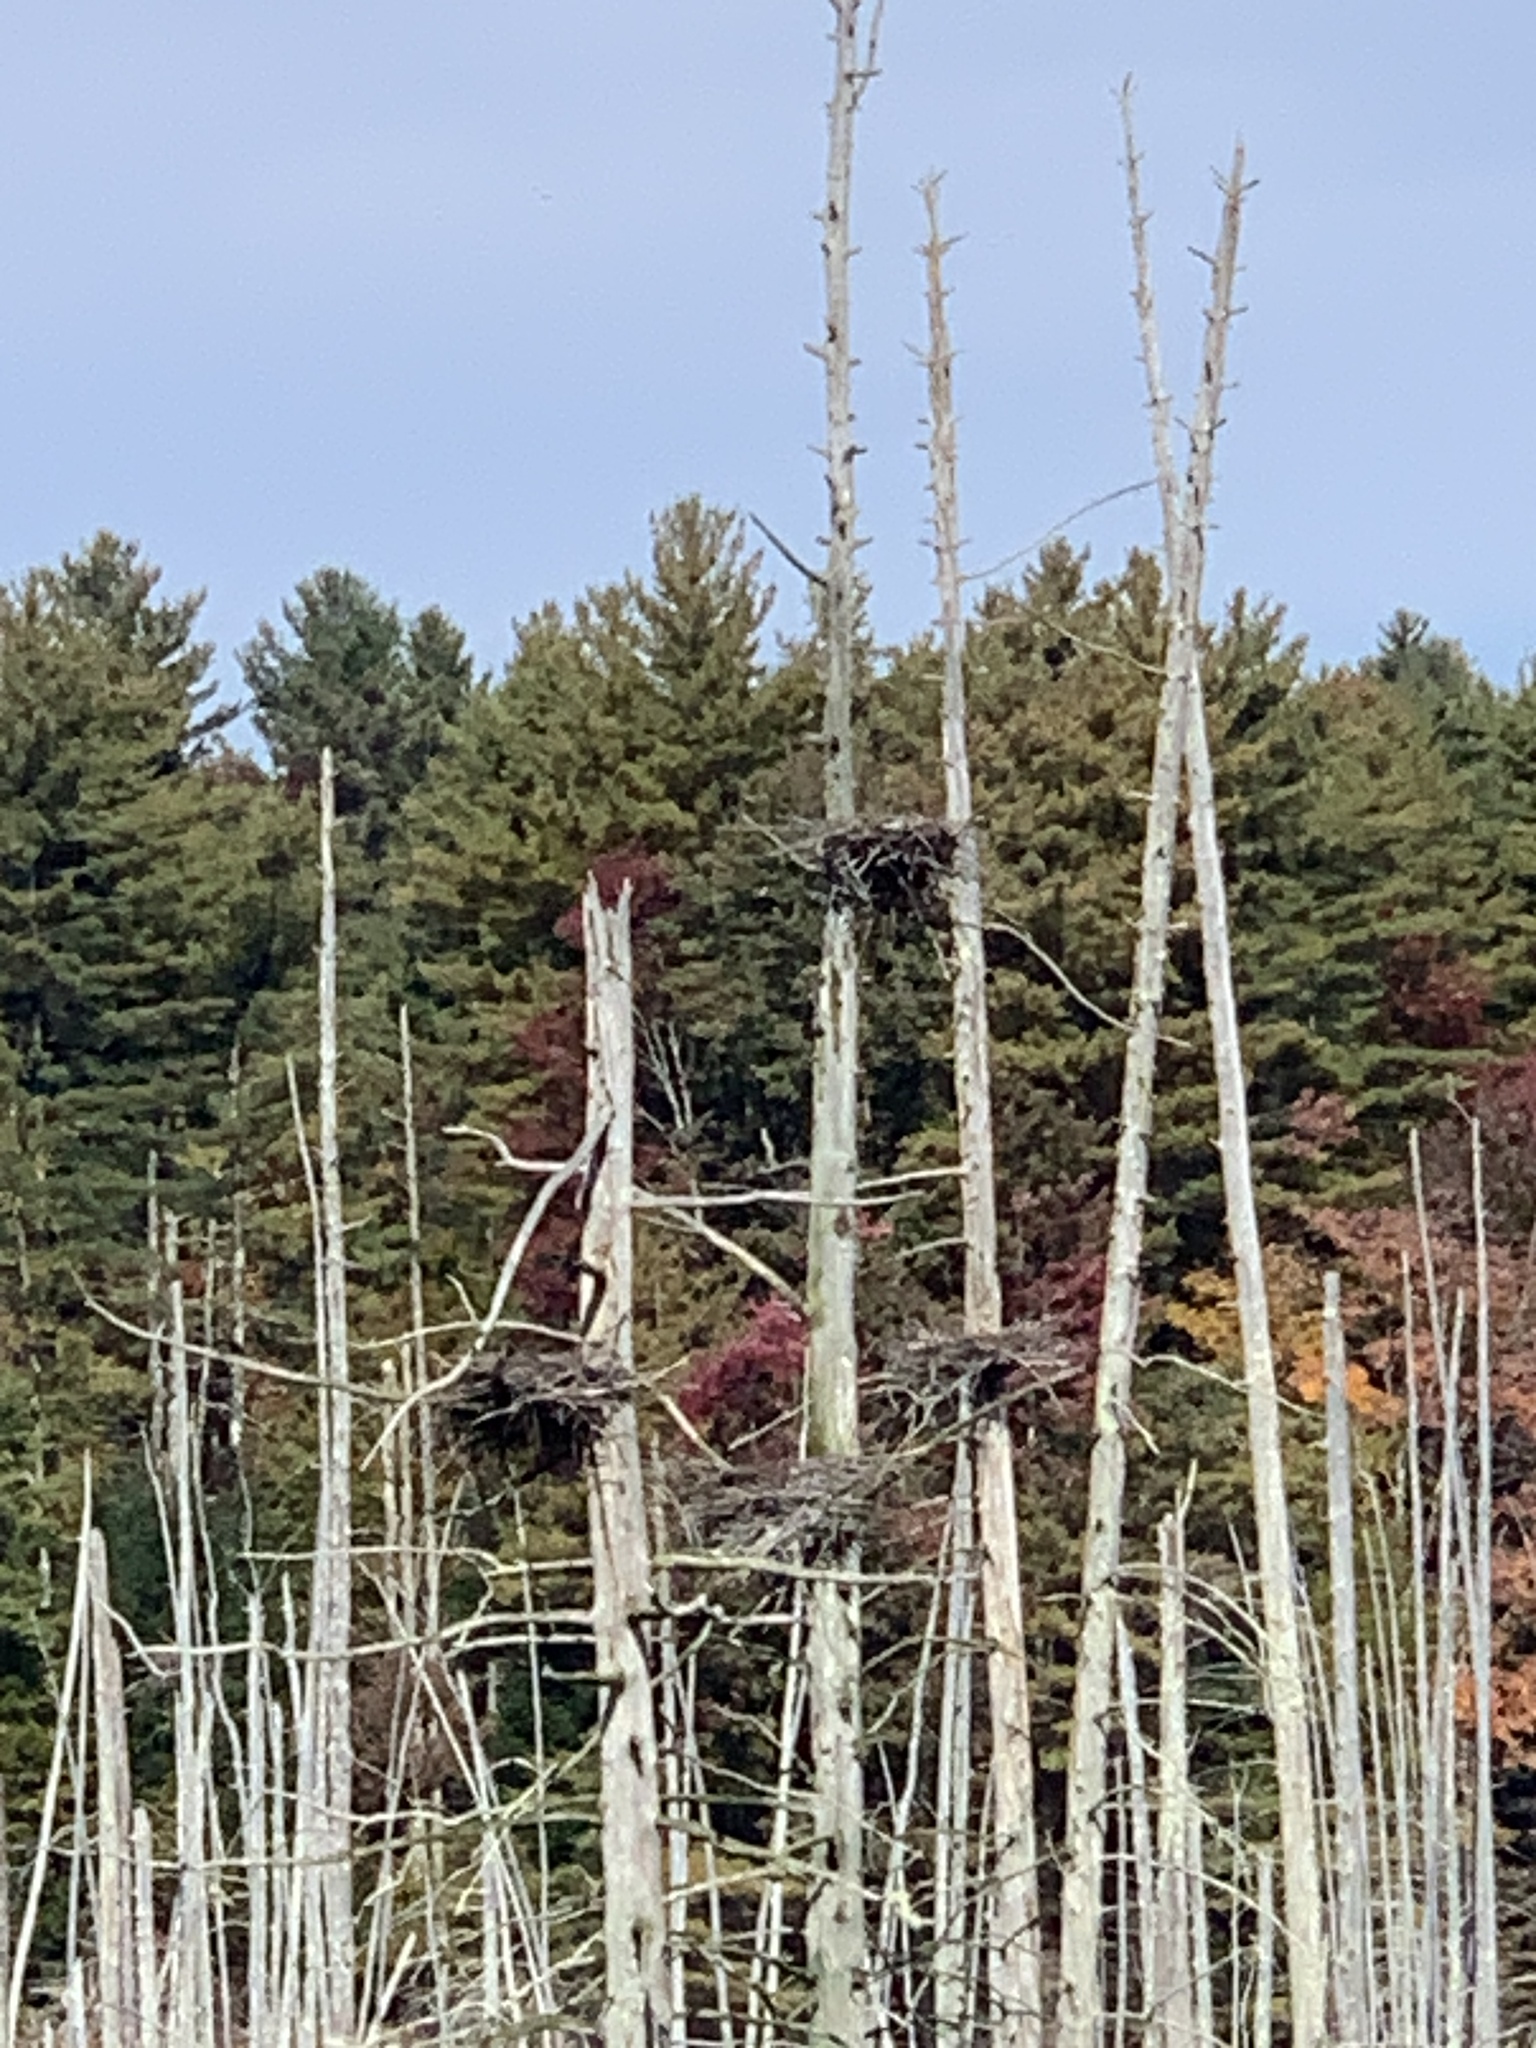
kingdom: Animalia
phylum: Chordata
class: Aves
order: Pelecaniformes
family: Ardeidae
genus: Ardea
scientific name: Ardea herodias
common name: Great blue heron
